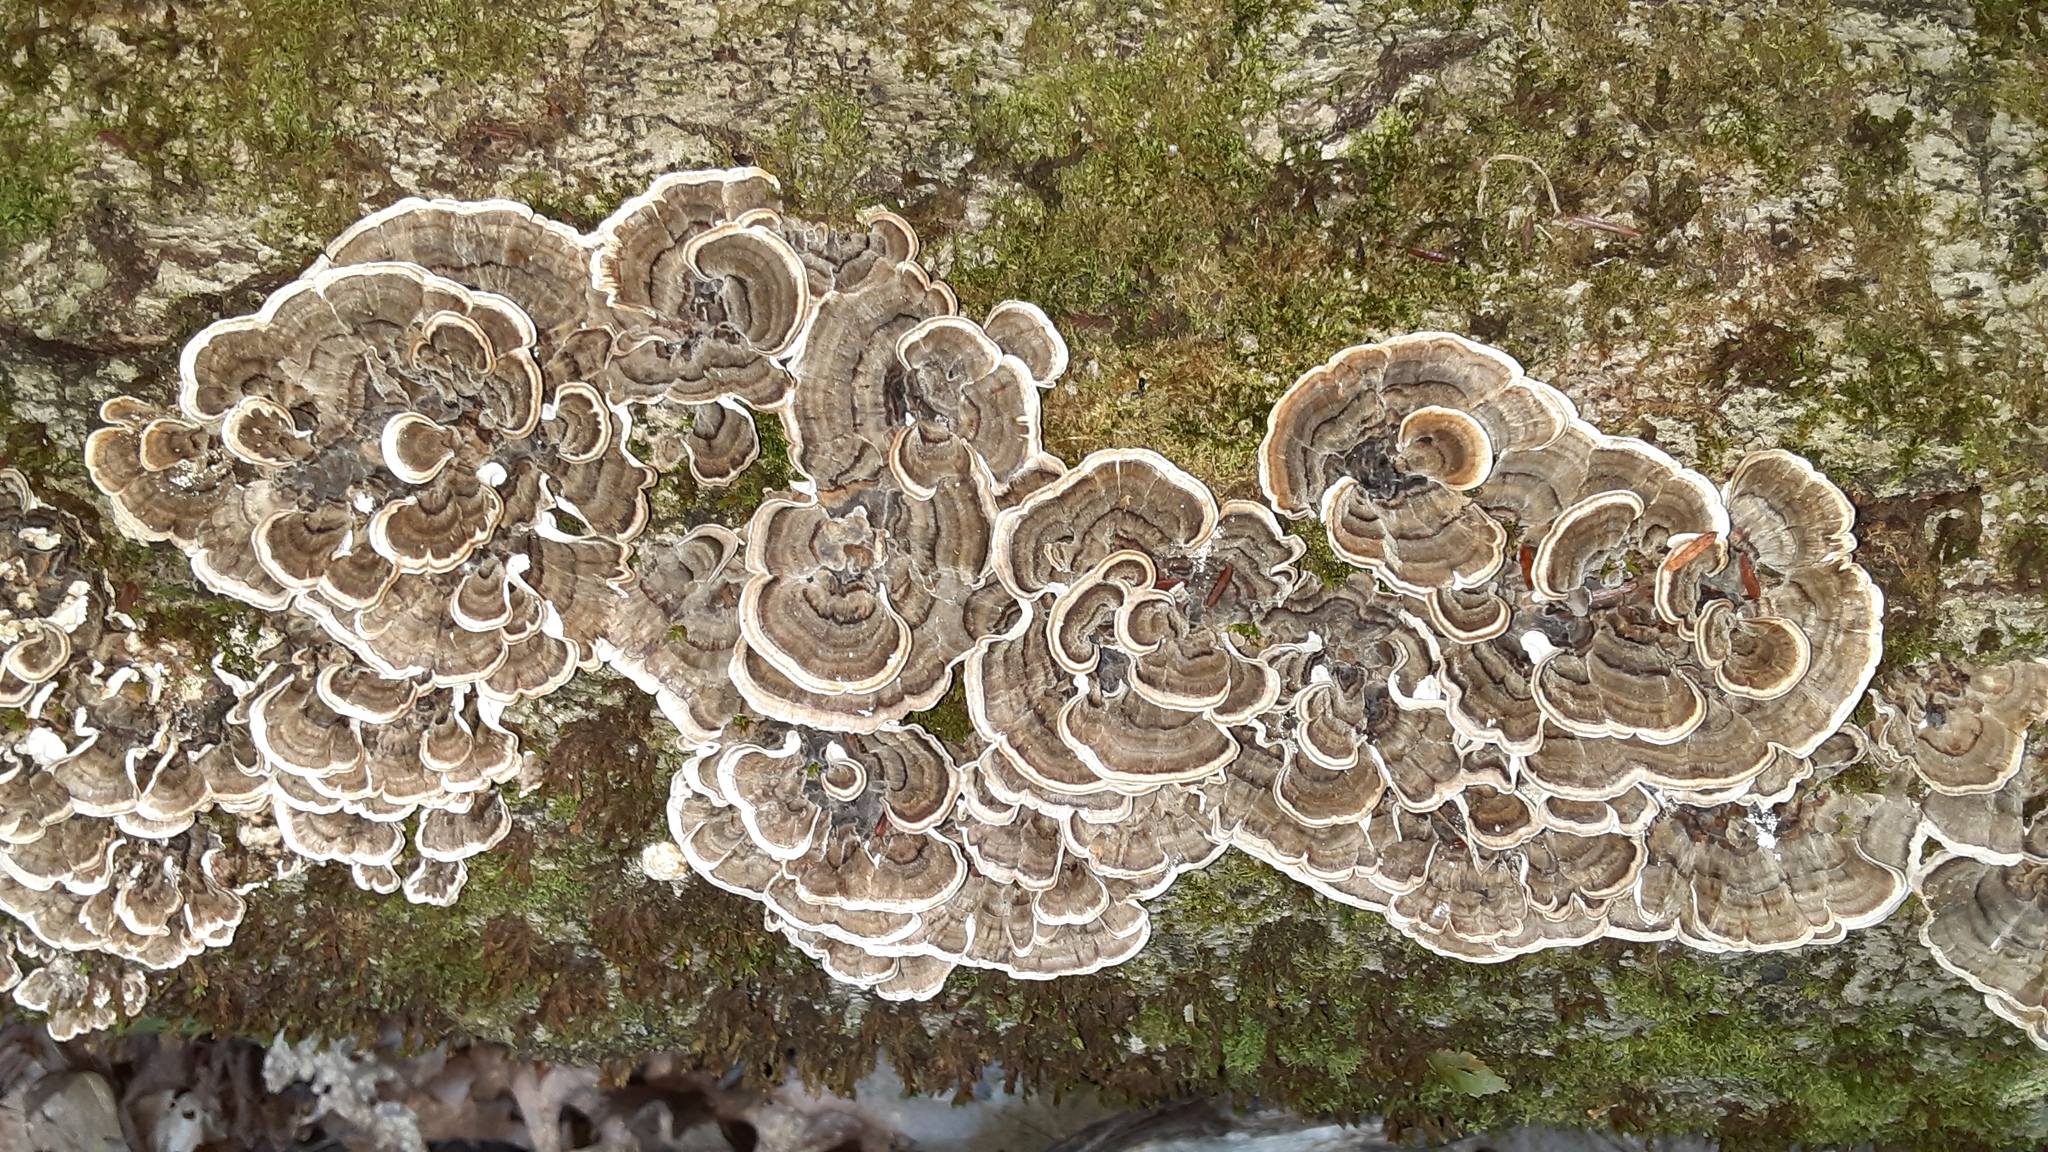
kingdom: Fungi
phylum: Basidiomycota
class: Agaricomycetes
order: Polyporales
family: Polyporaceae
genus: Trametes
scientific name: Trametes versicolor
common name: Turkeytail
